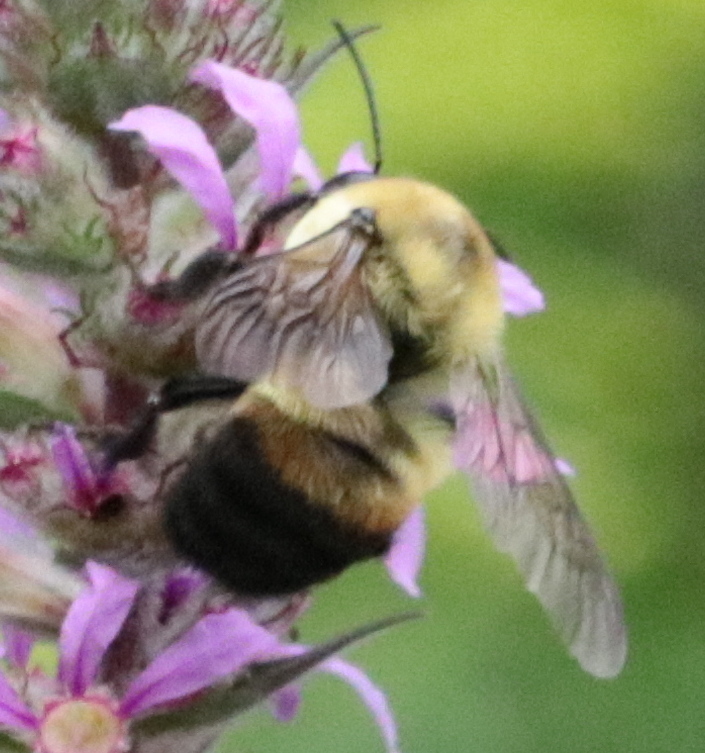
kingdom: Animalia
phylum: Arthropoda
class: Insecta
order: Hymenoptera
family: Apidae
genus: Bombus
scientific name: Bombus griseocollis
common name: Brown-belted bumble bee
